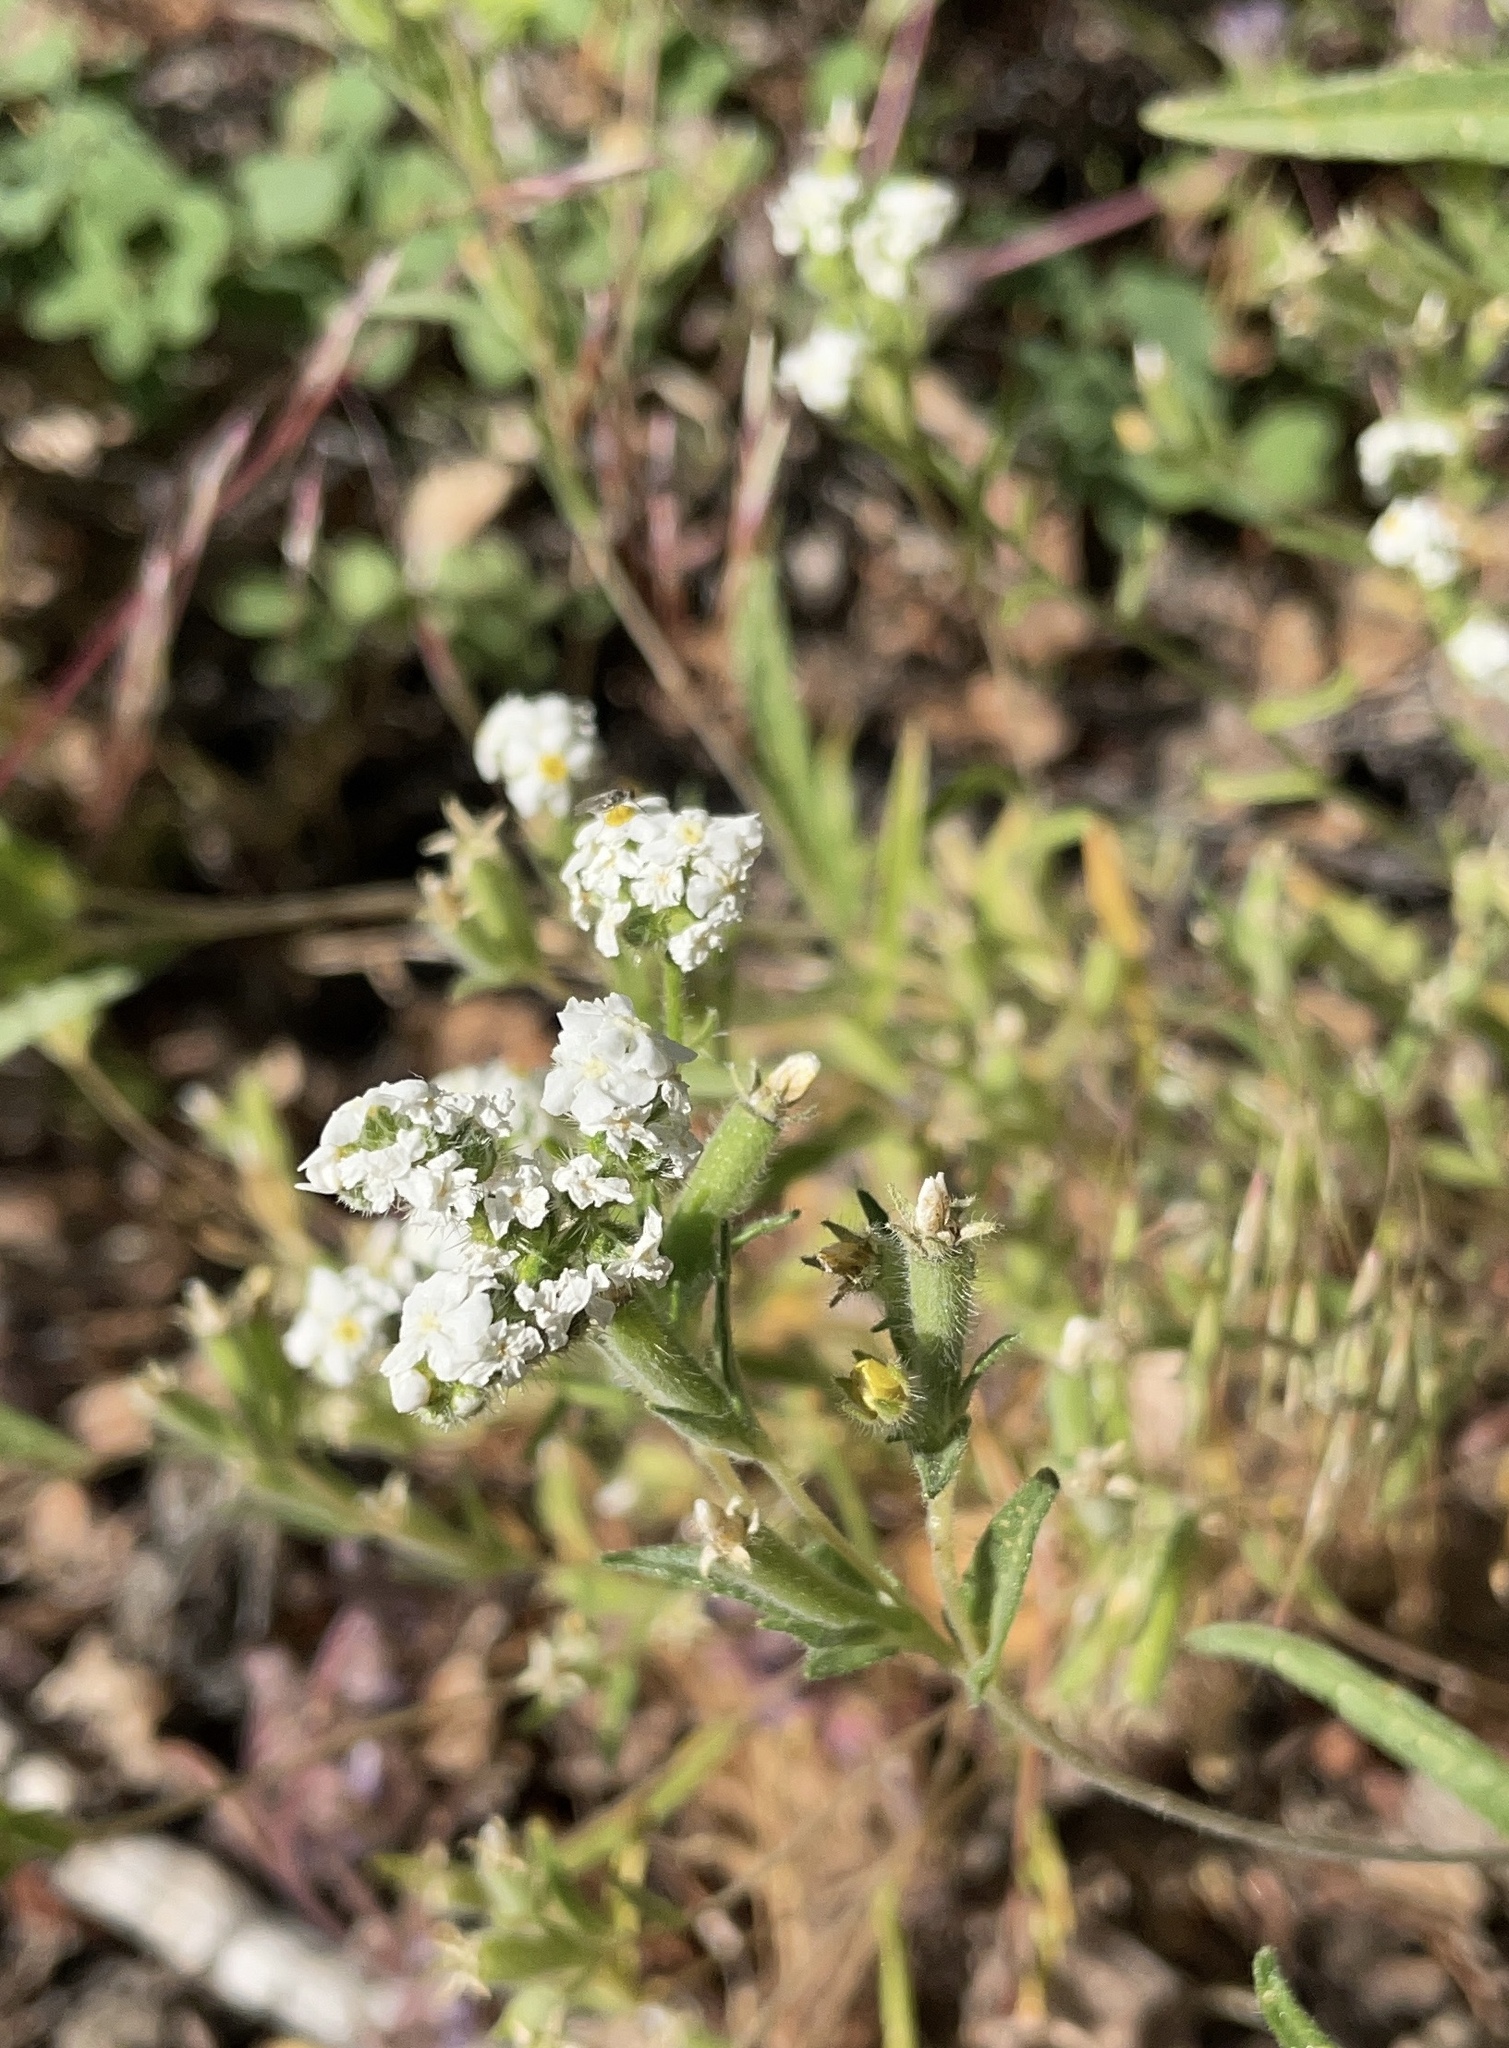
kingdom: Plantae
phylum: Tracheophyta
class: Magnoliopsida
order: Boraginales
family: Boraginaceae
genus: Cryptantha
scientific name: Cryptantha pterocarya
